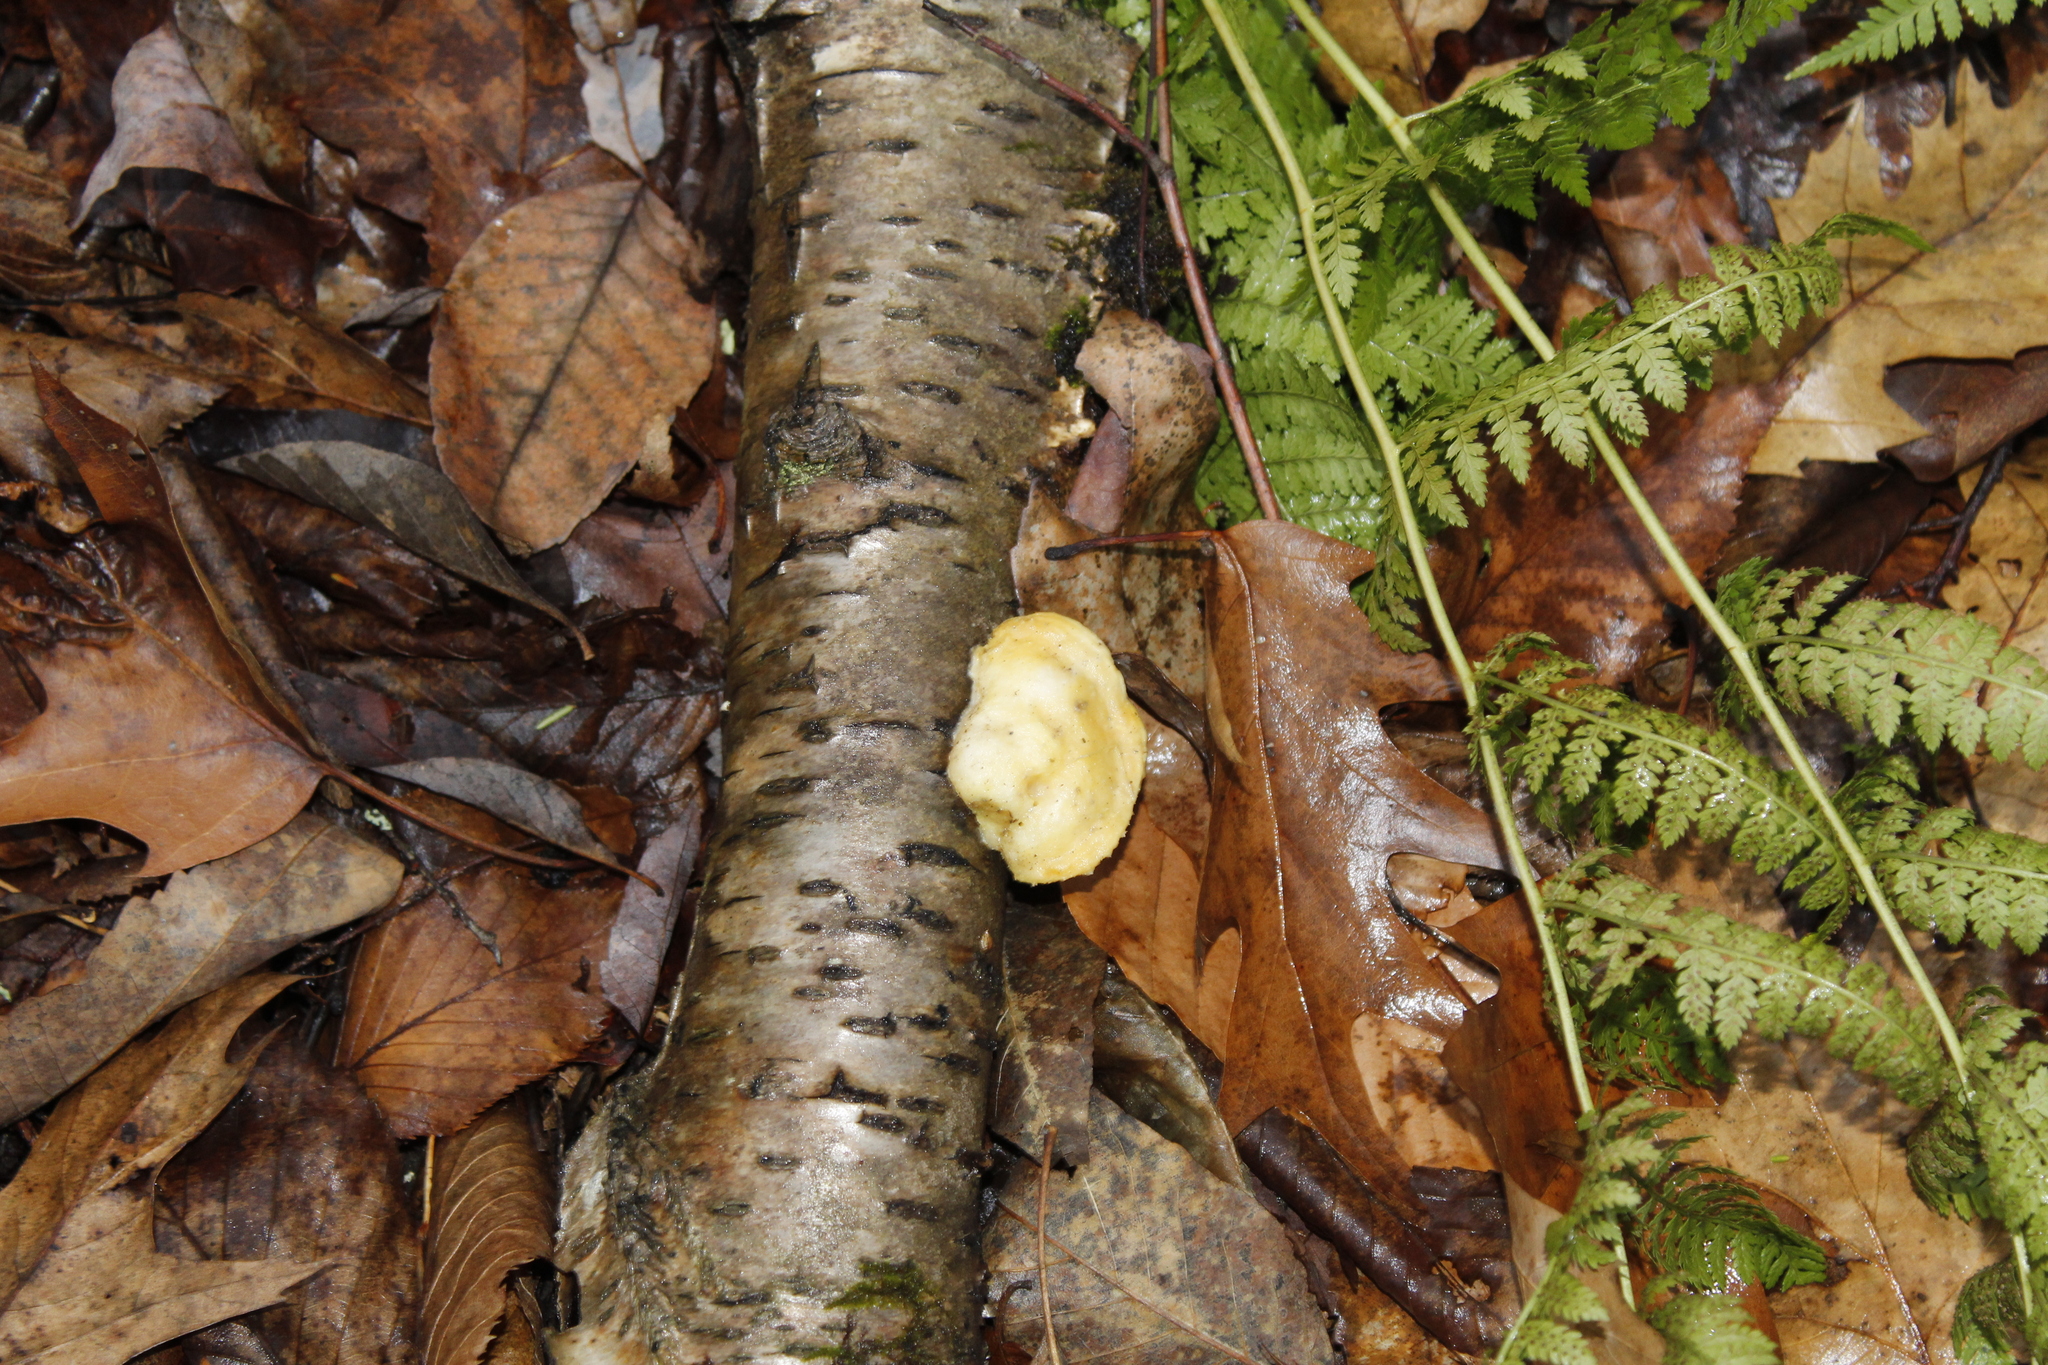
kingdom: Fungi
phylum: Basidiomycota
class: Agaricomycetes
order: Polyporales
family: Incrustoporiaceae
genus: Tyromyces
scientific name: Tyromyces chioneus
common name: White cheese polypore
